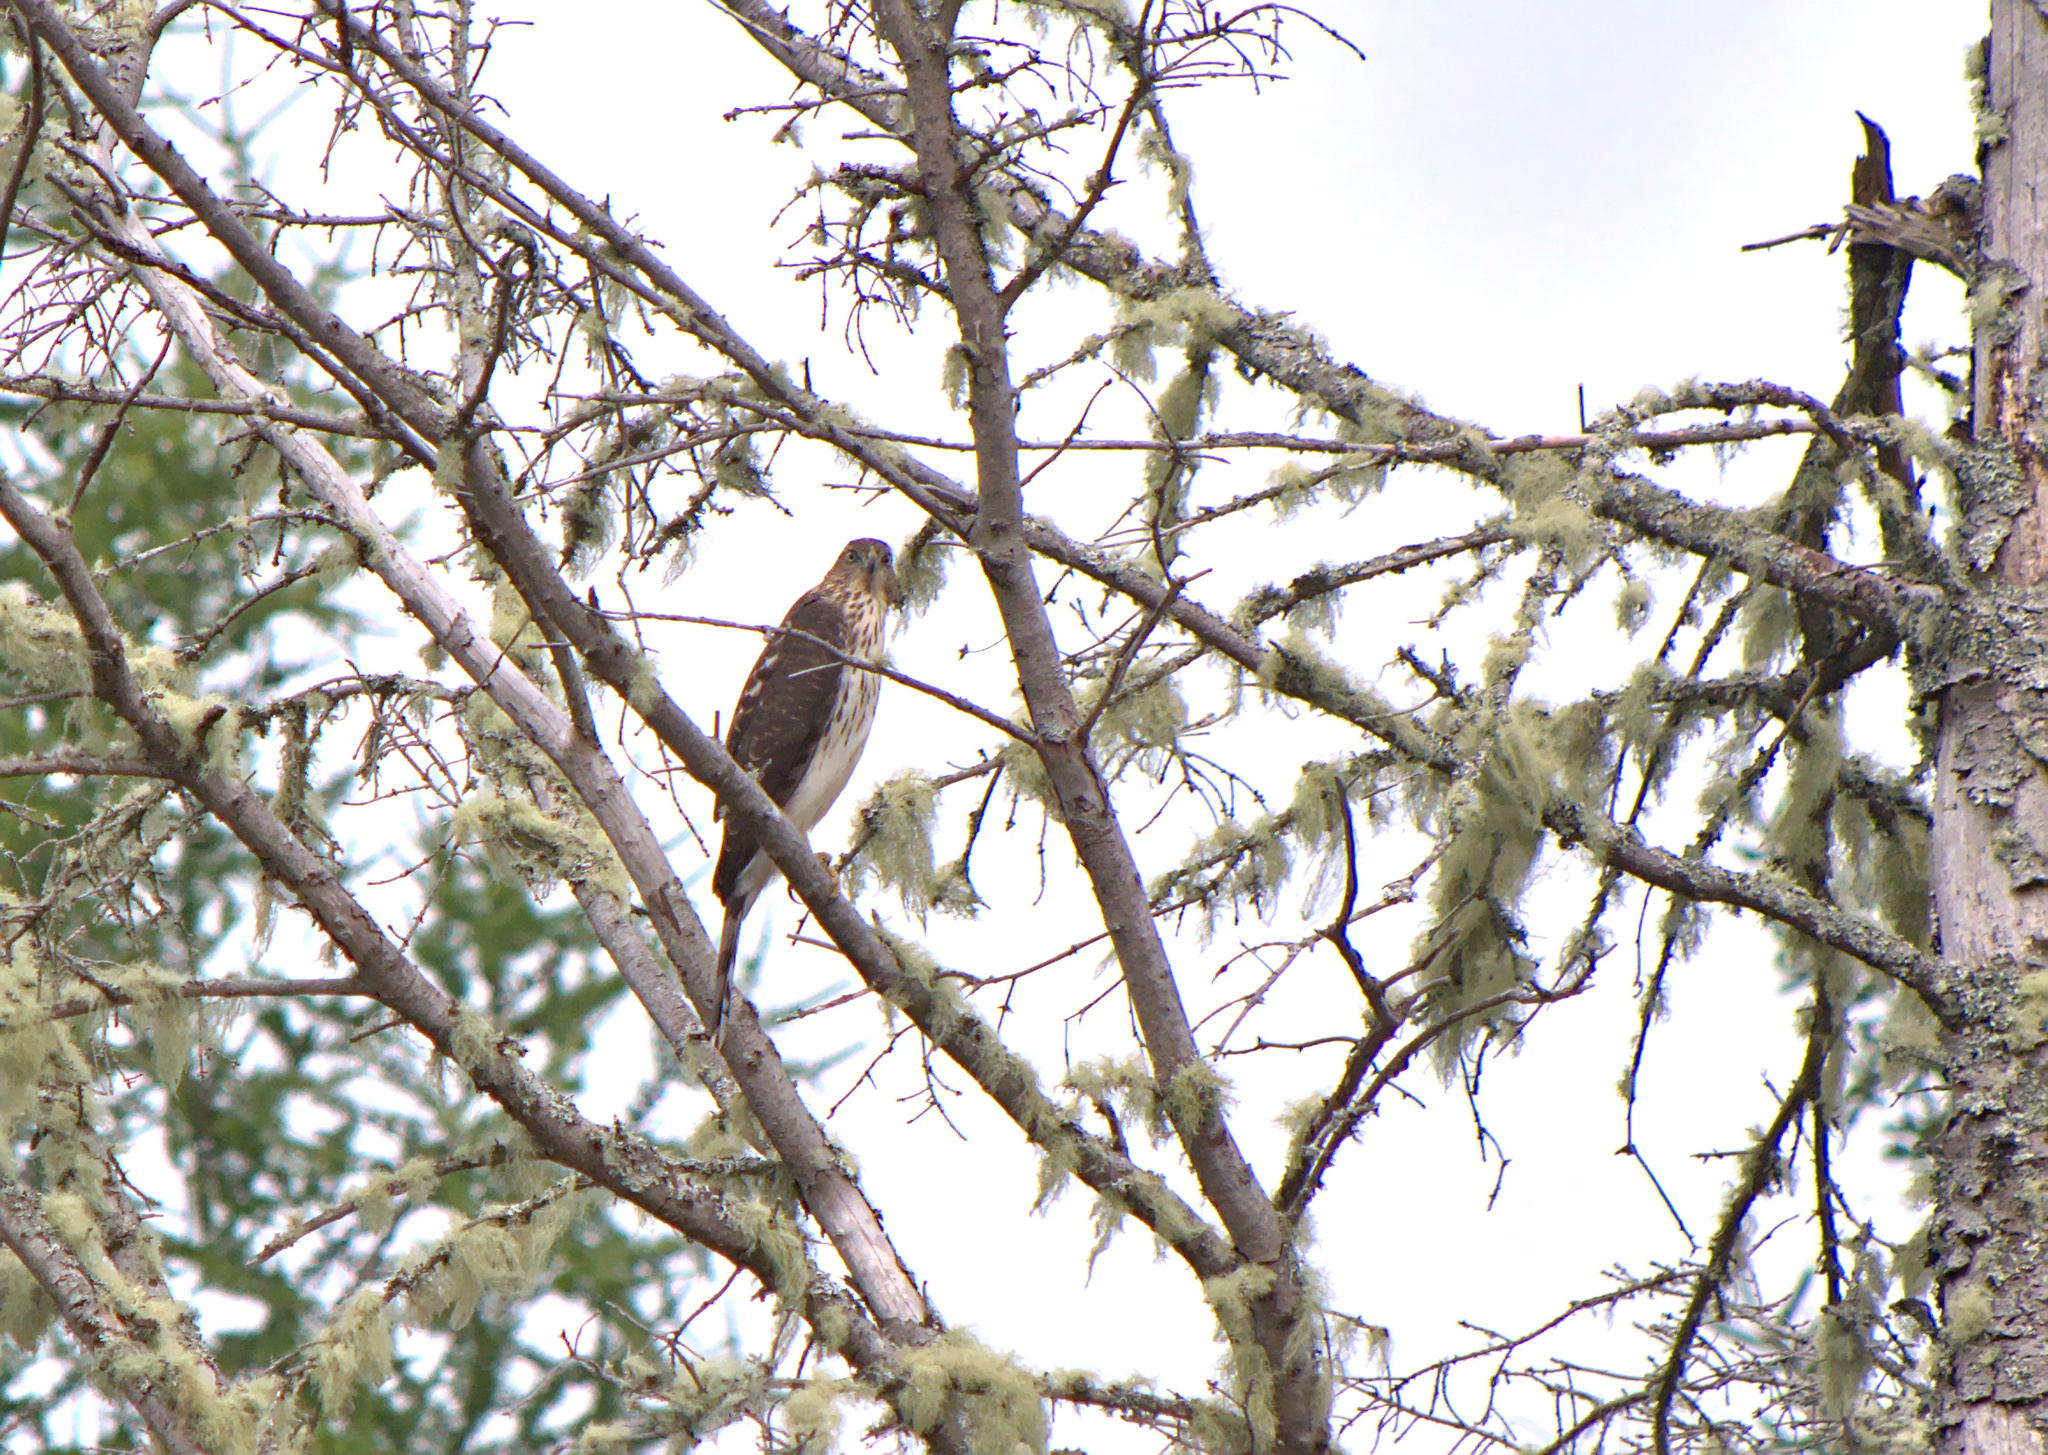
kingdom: Animalia
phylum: Chordata
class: Aves
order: Accipitriformes
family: Accipitridae
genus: Accipiter
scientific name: Accipiter cooperii
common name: Cooper's hawk
